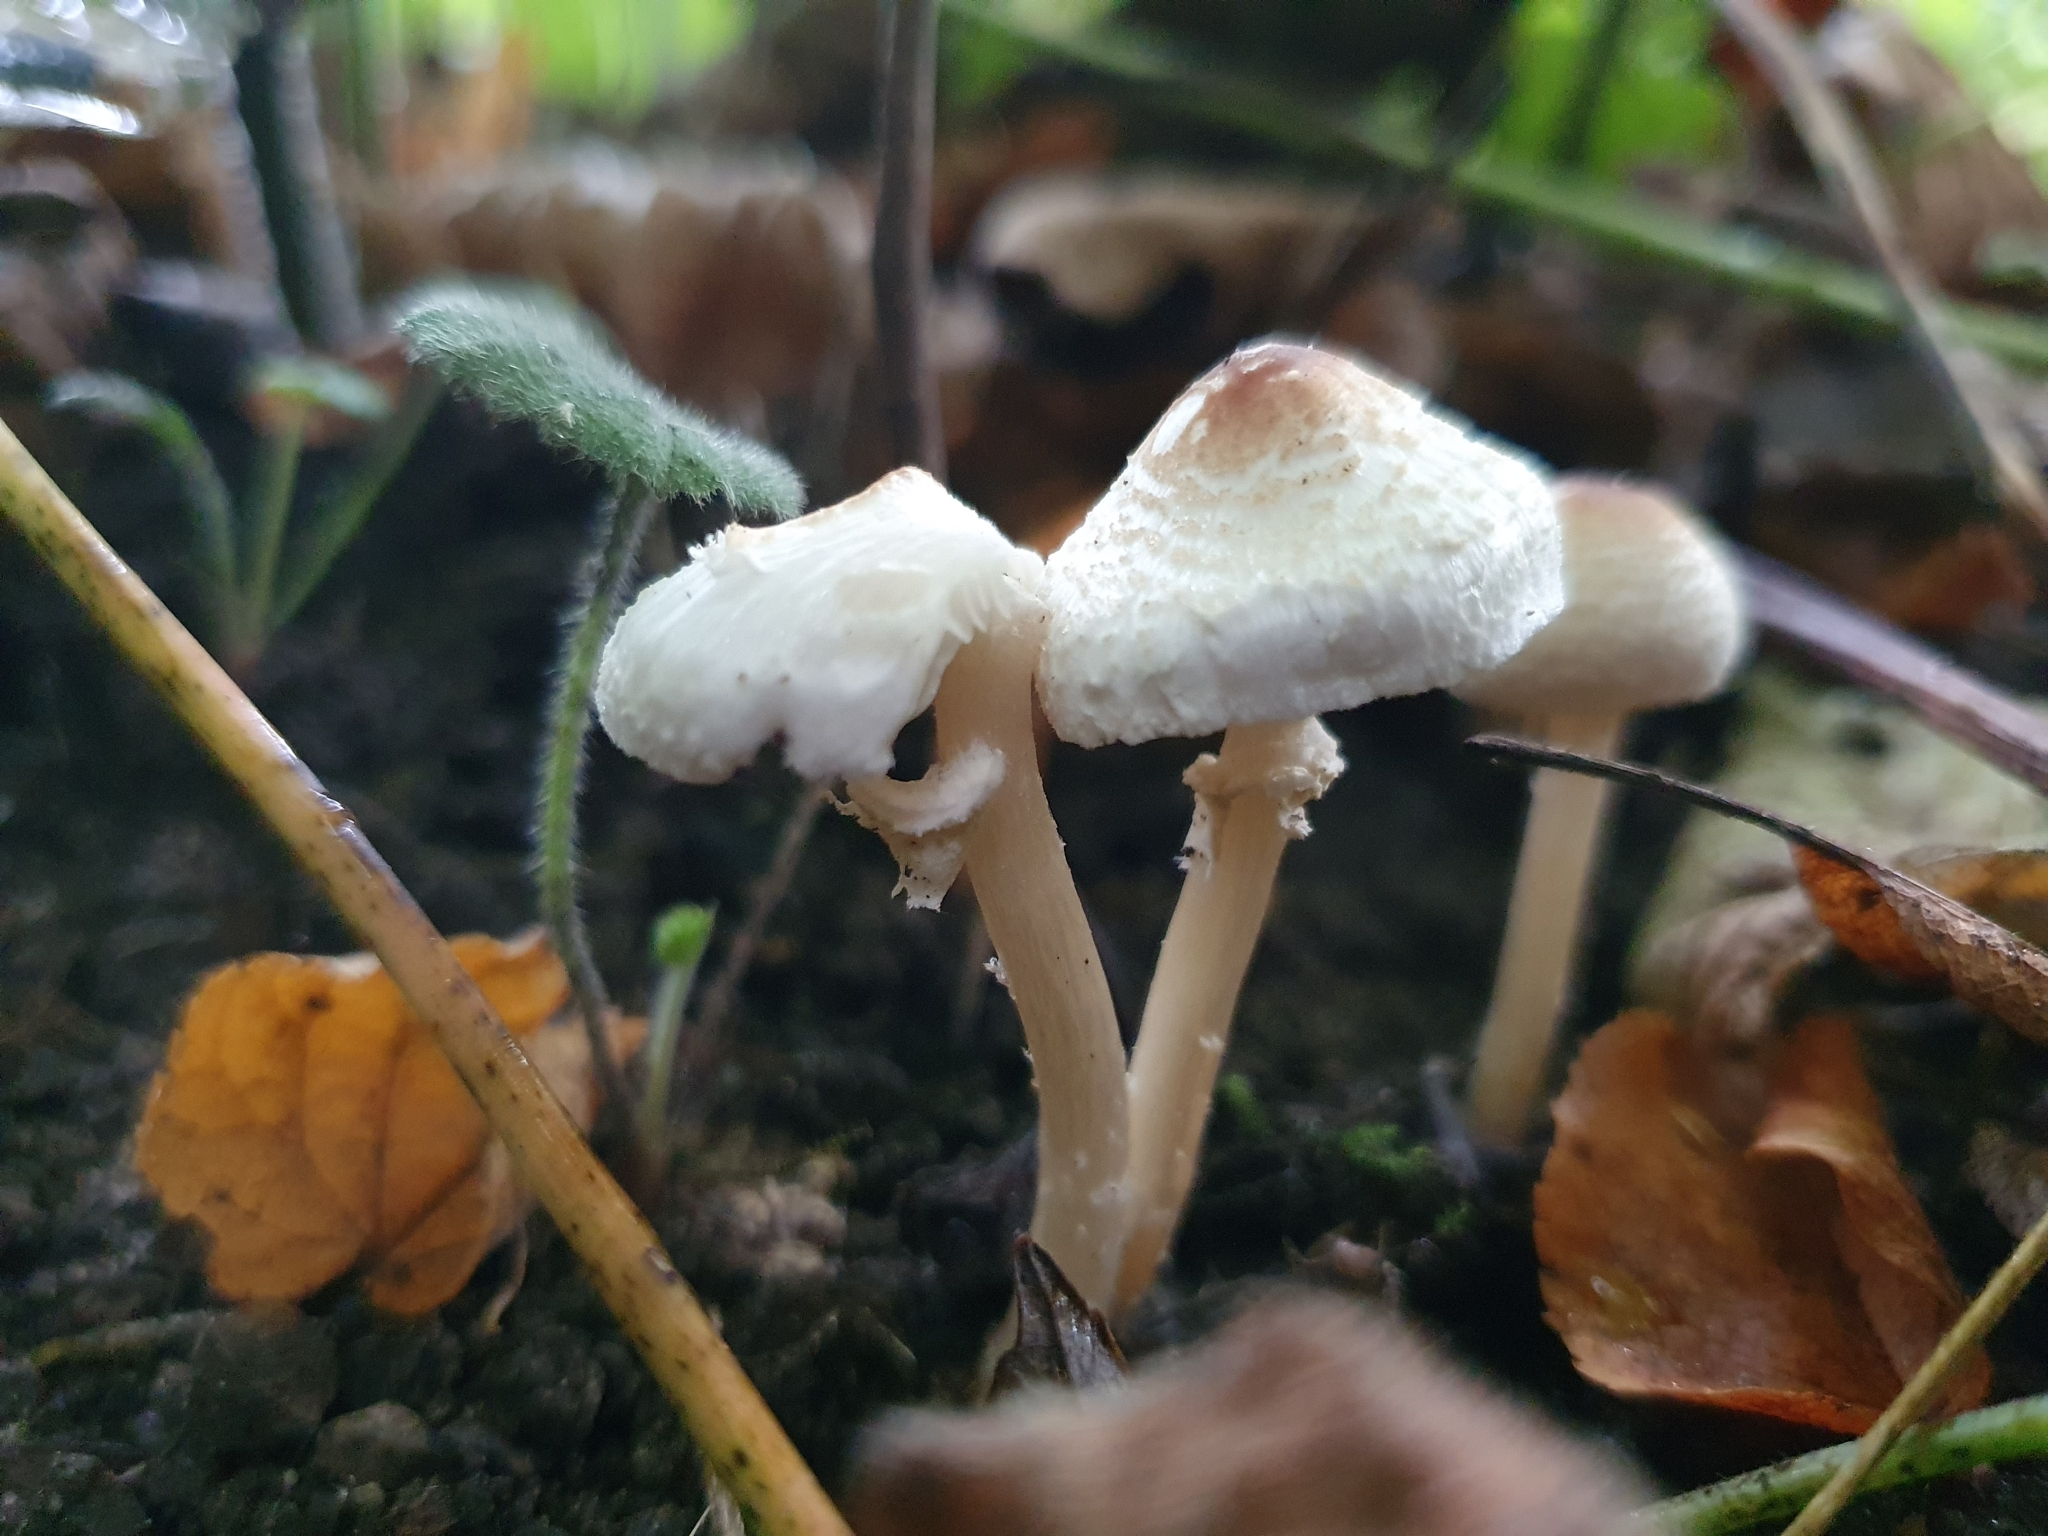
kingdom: Fungi
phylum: Basidiomycota
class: Agaricomycetes
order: Agaricales
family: Agaricaceae
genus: Lepiota
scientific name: Lepiota cristata
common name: Stinking dapperling
